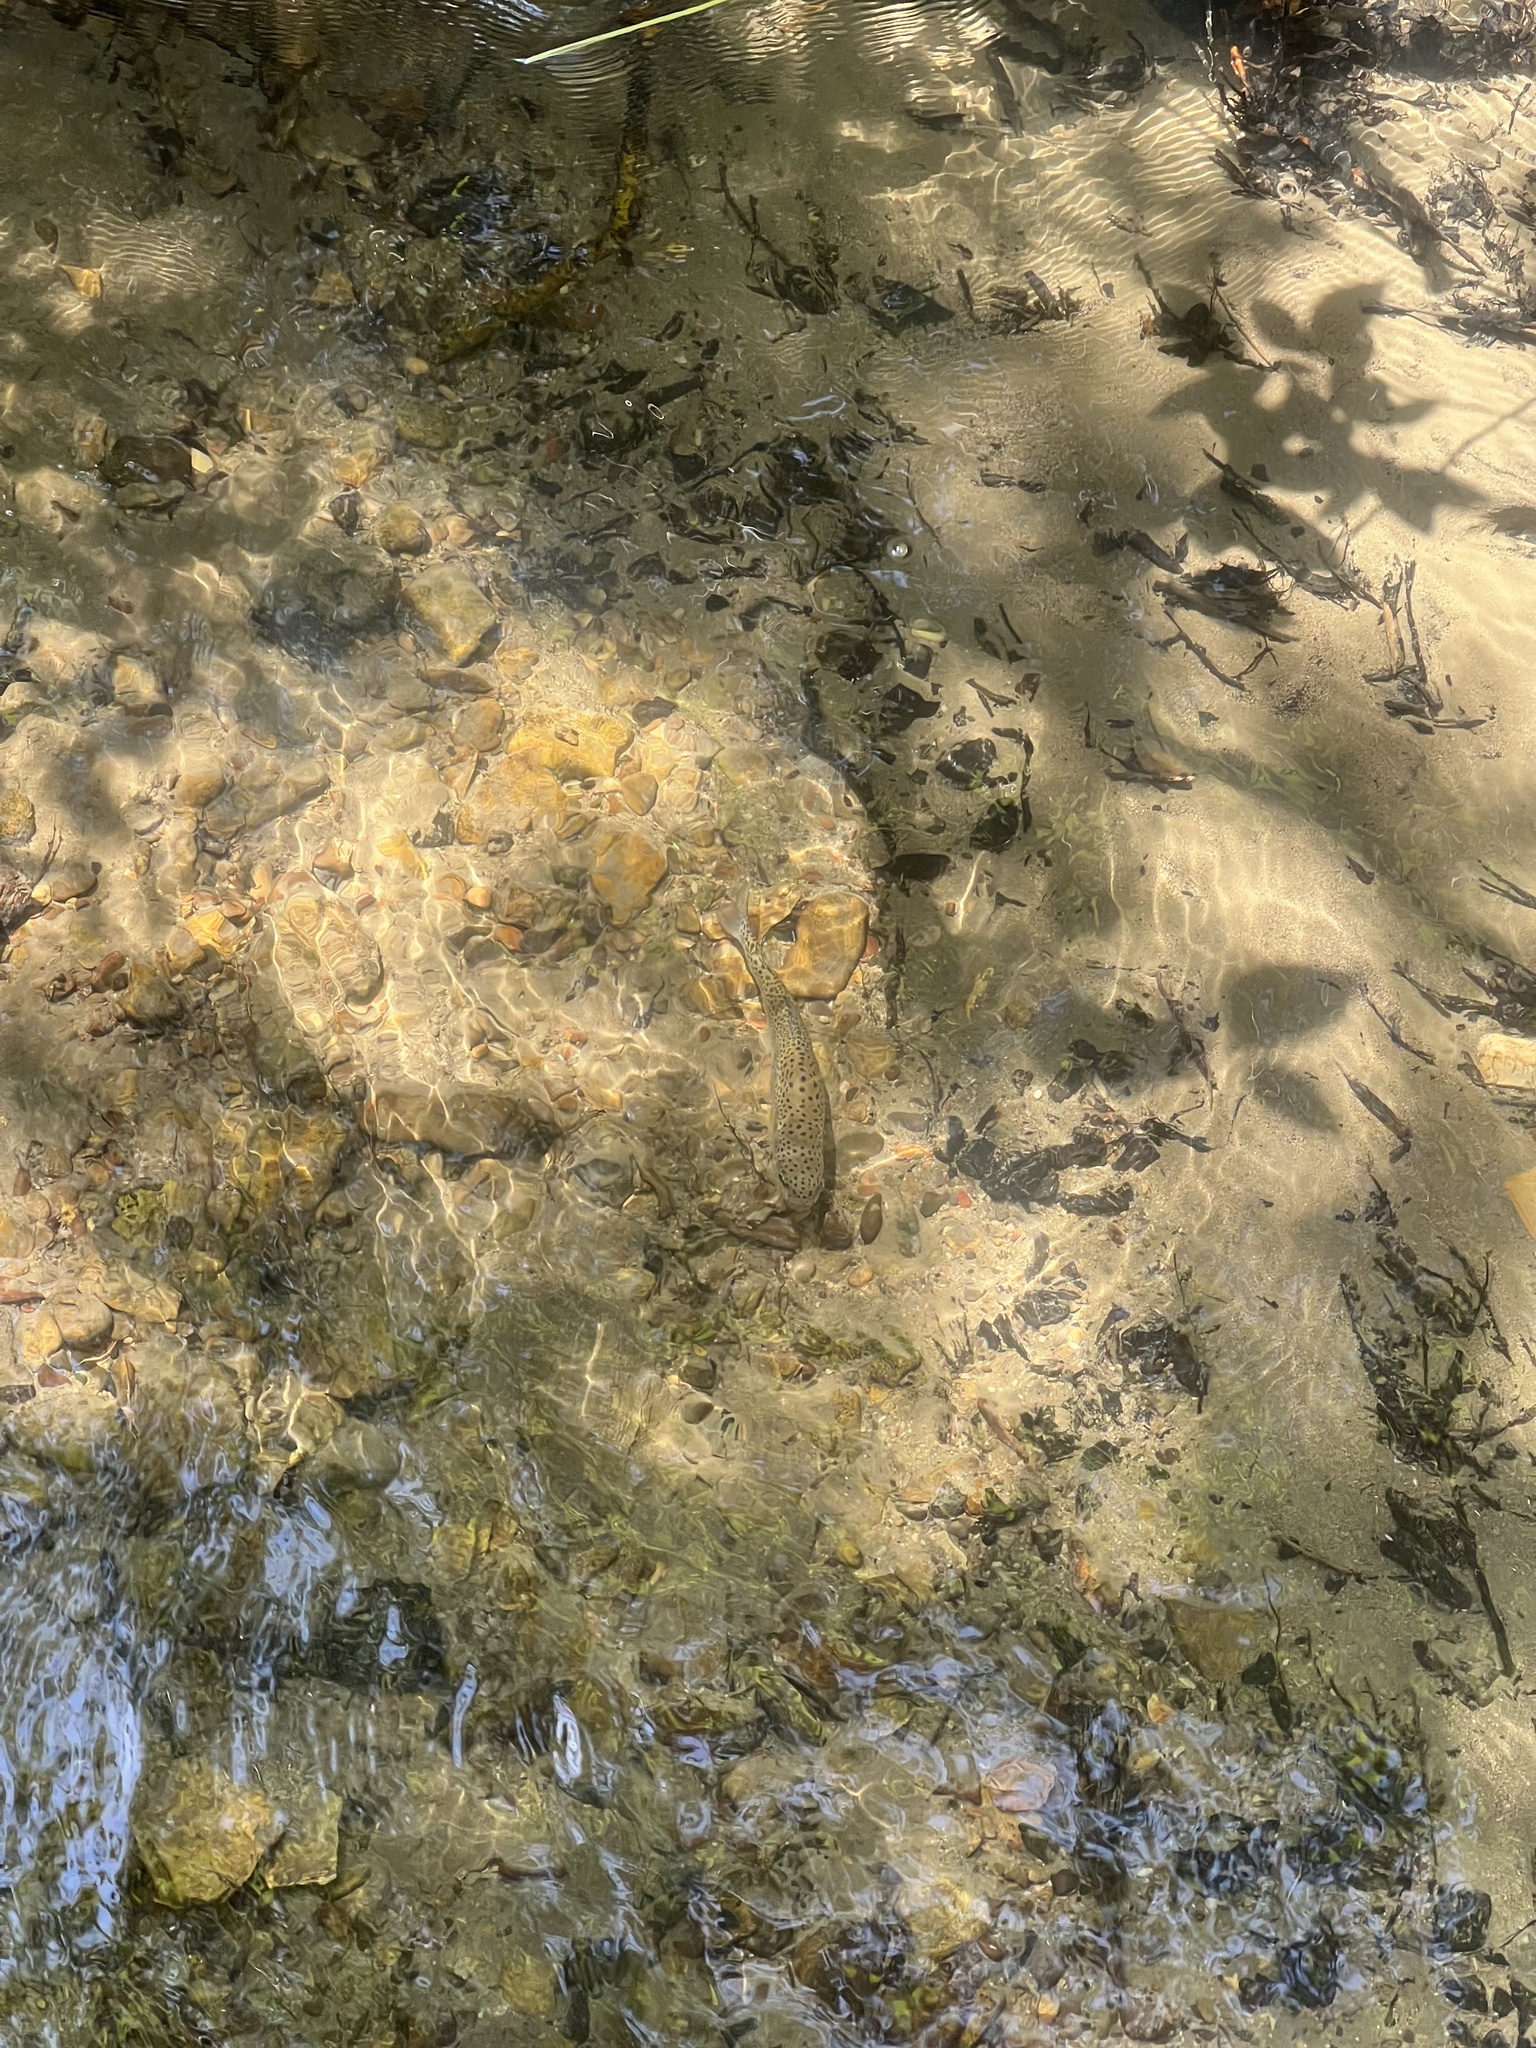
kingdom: Animalia
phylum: Chordata
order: Salmoniformes
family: Salmonidae
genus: Oncorhynchus
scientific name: Oncorhynchus mykiss
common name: Rainbow trout
